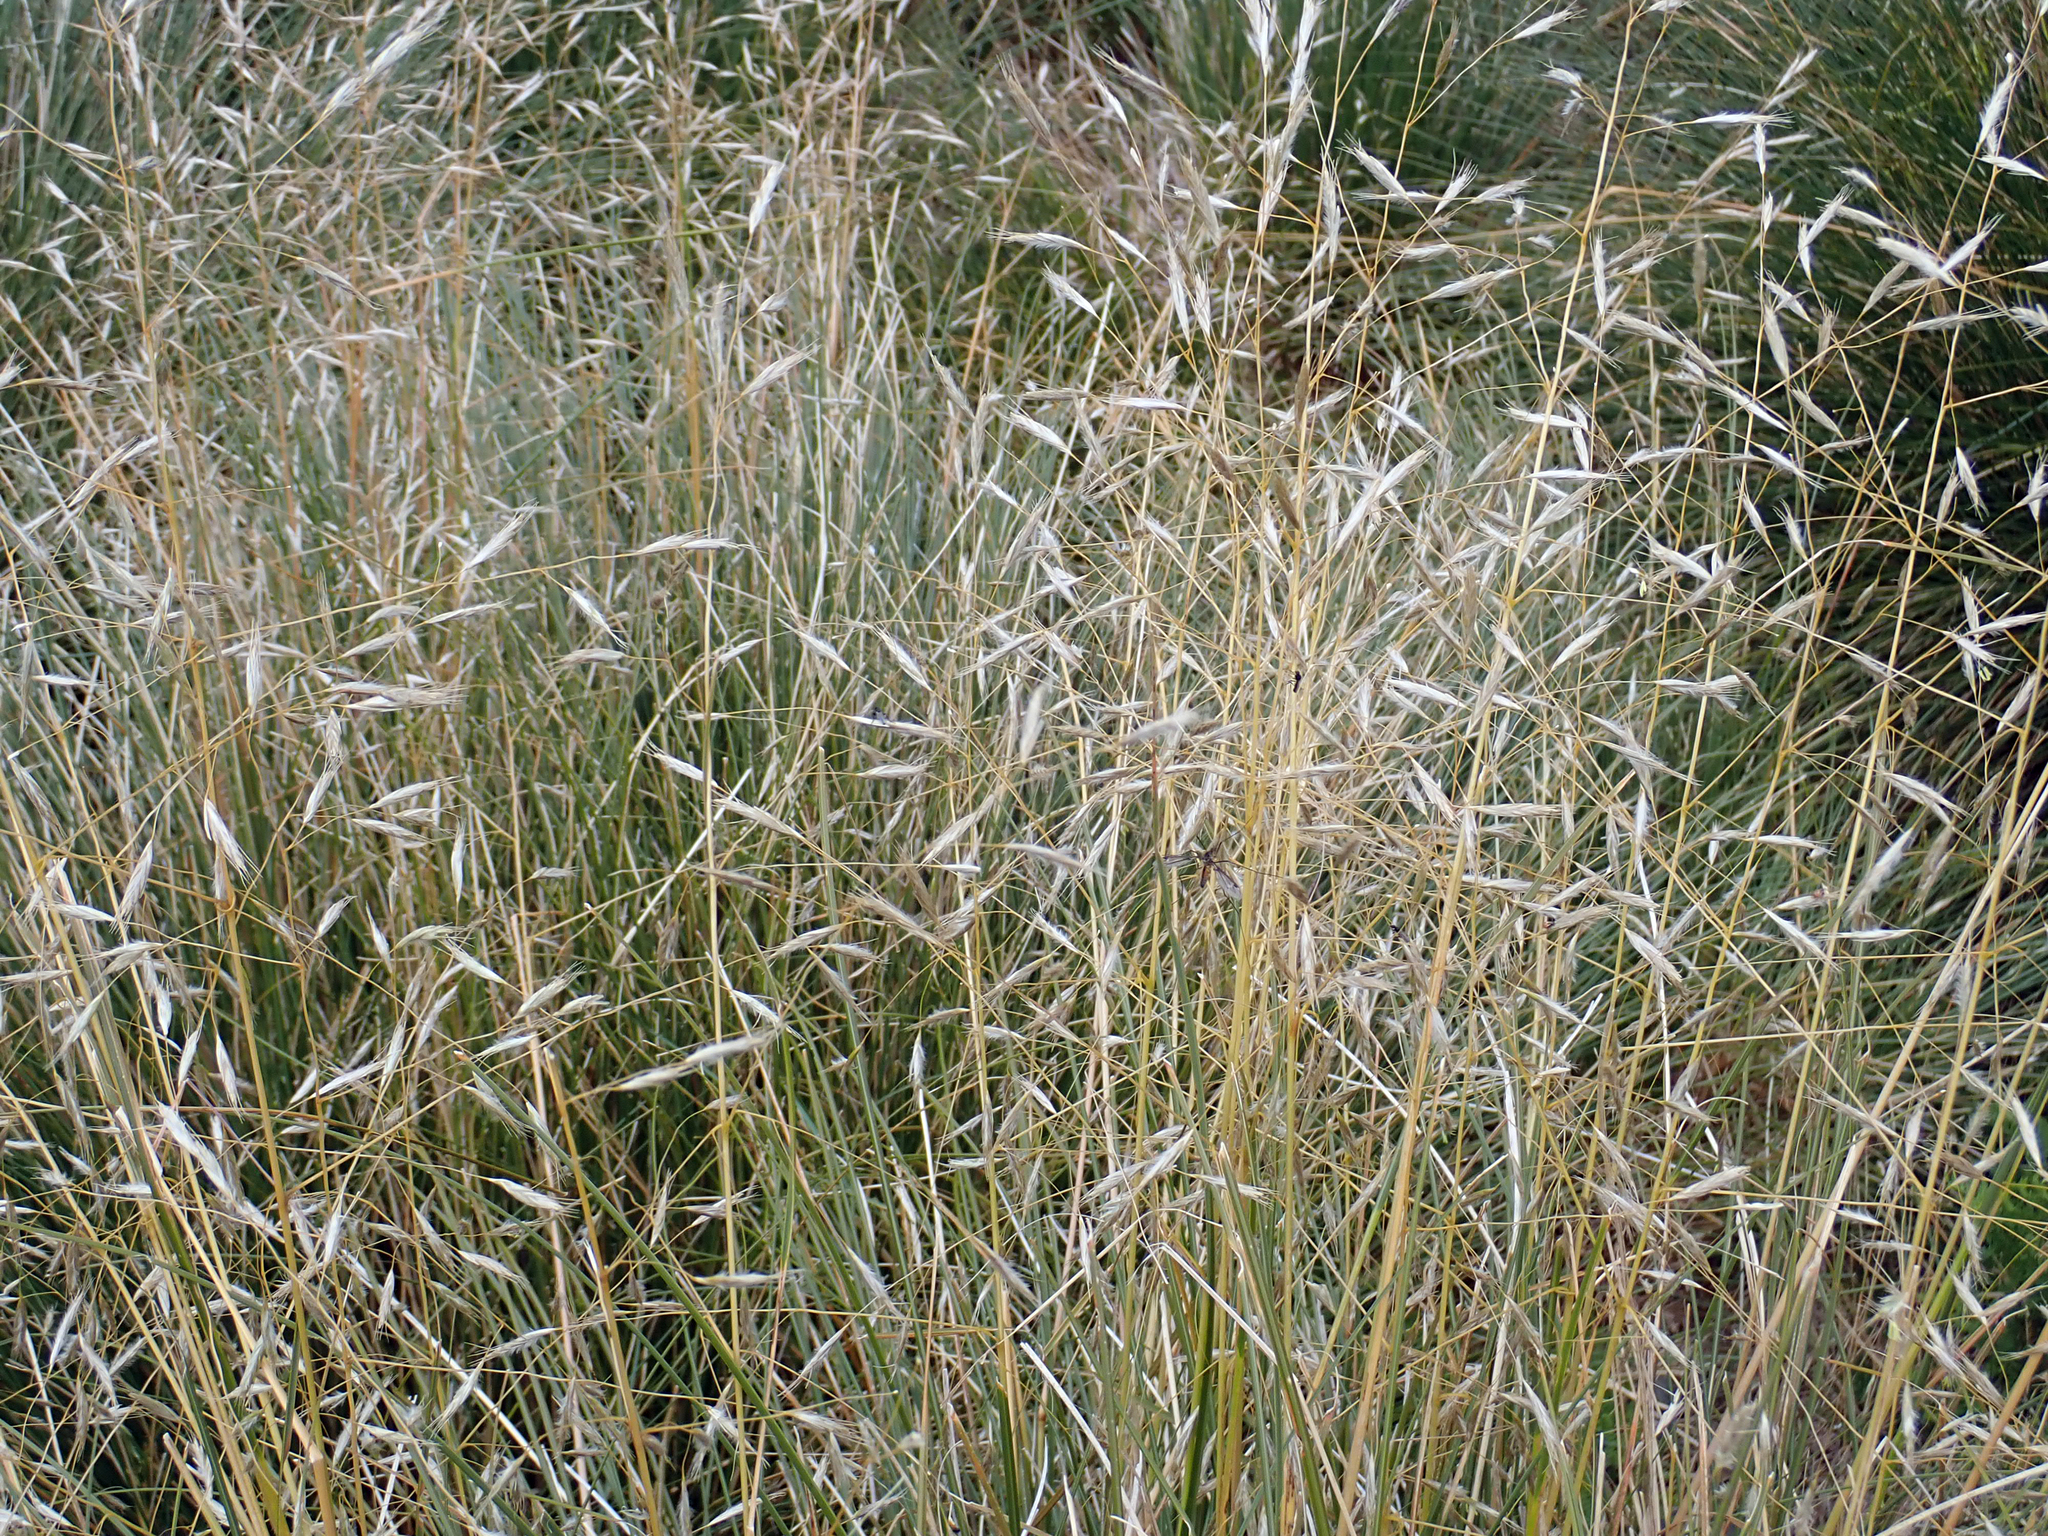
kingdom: Plantae
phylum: Tracheophyta
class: Liliopsida
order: Poales
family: Poaceae
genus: Chionochloa
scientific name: Chionochloa rubra
